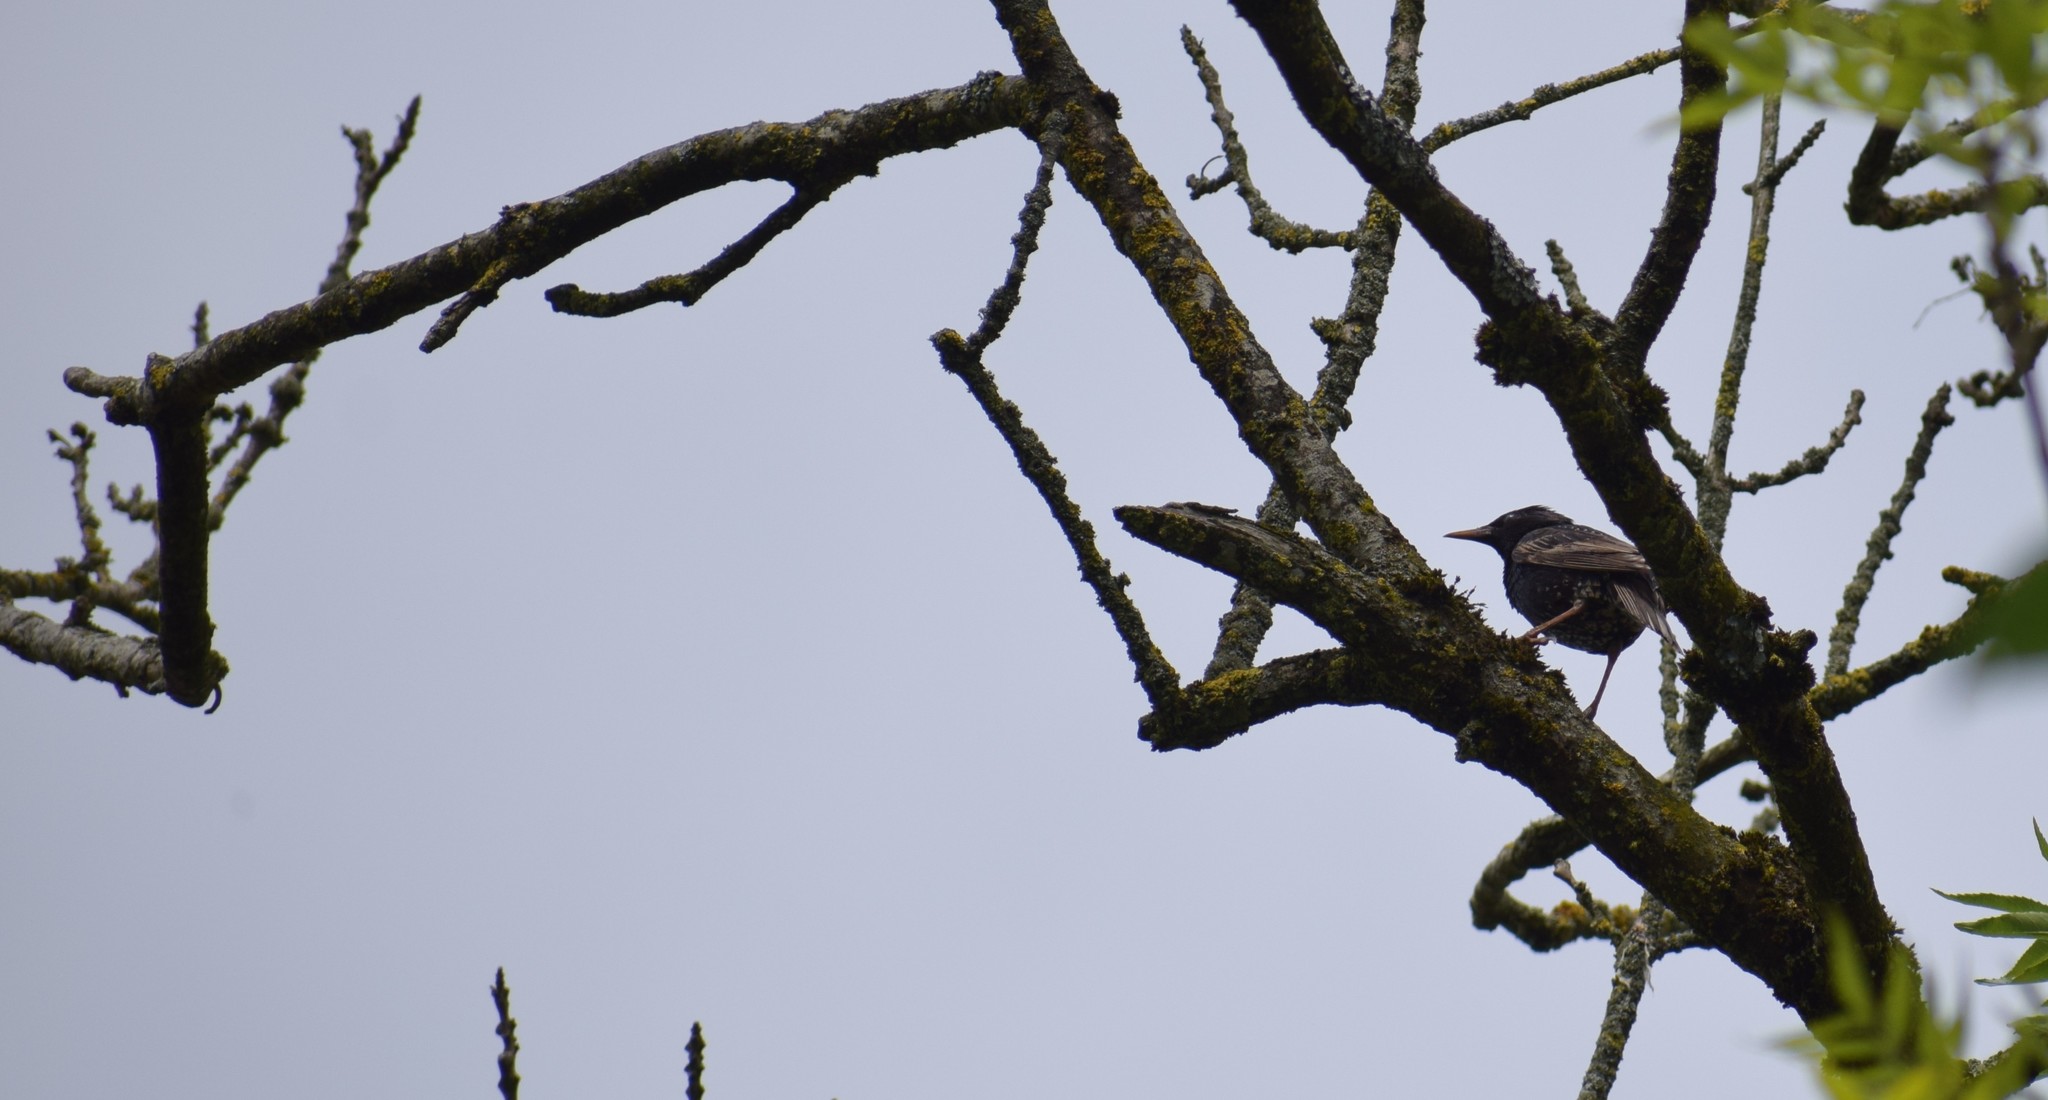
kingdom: Animalia
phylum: Chordata
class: Aves
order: Passeriformes
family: Sturnidae
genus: Sturnus
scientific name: Sturnus vulgaris
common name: Common starling
